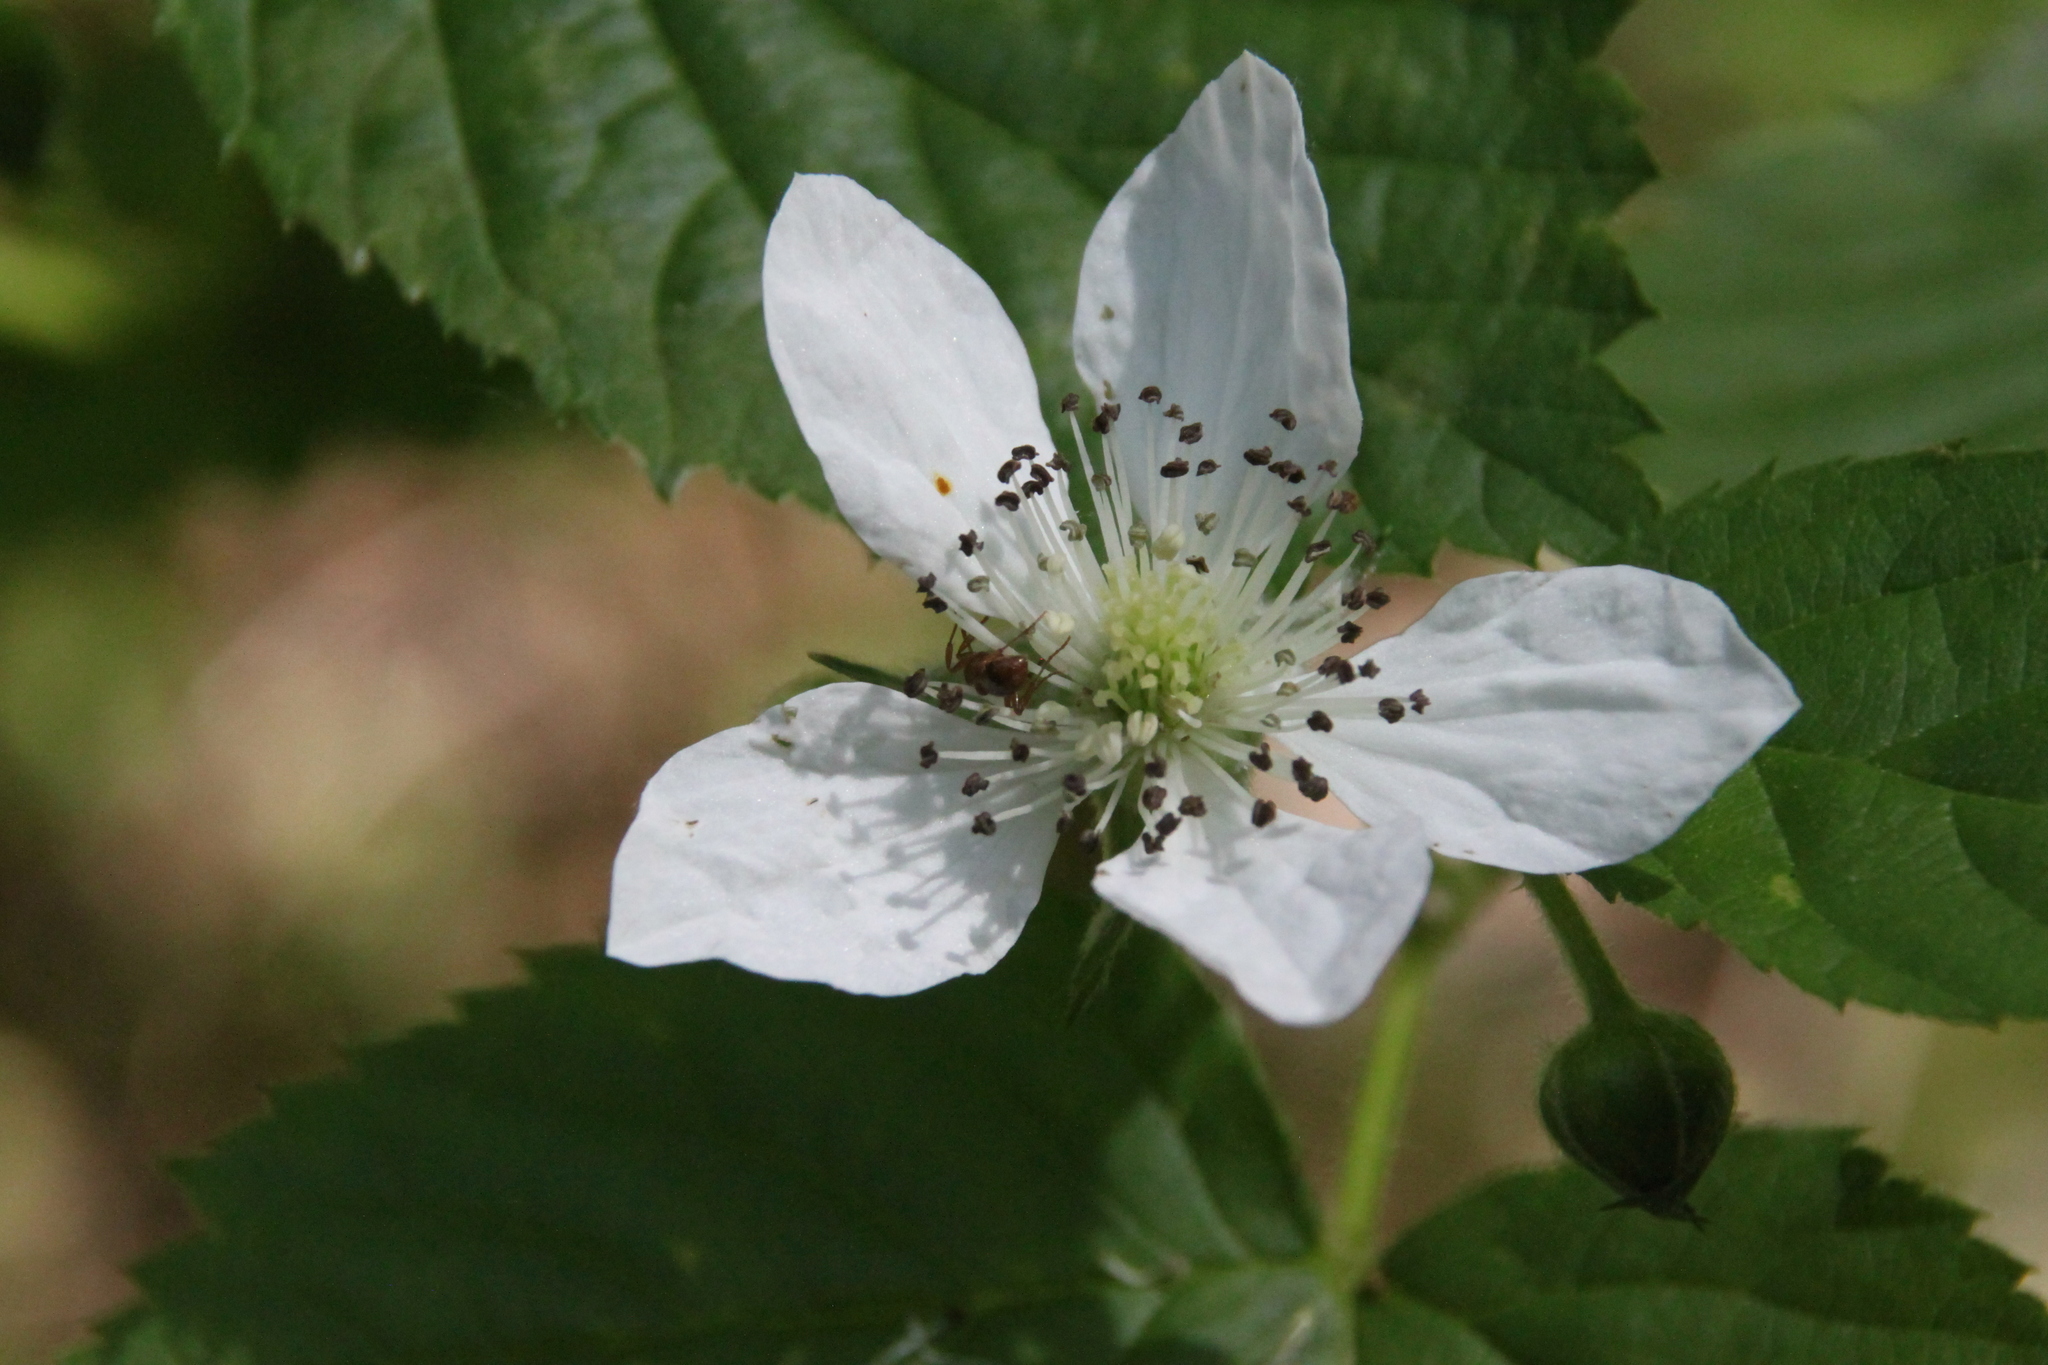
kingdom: Plantae
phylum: Tracheophyta
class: Magnoliopsida
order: Rosales
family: Rosaceae
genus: Rubus
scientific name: Rubus polonicus
